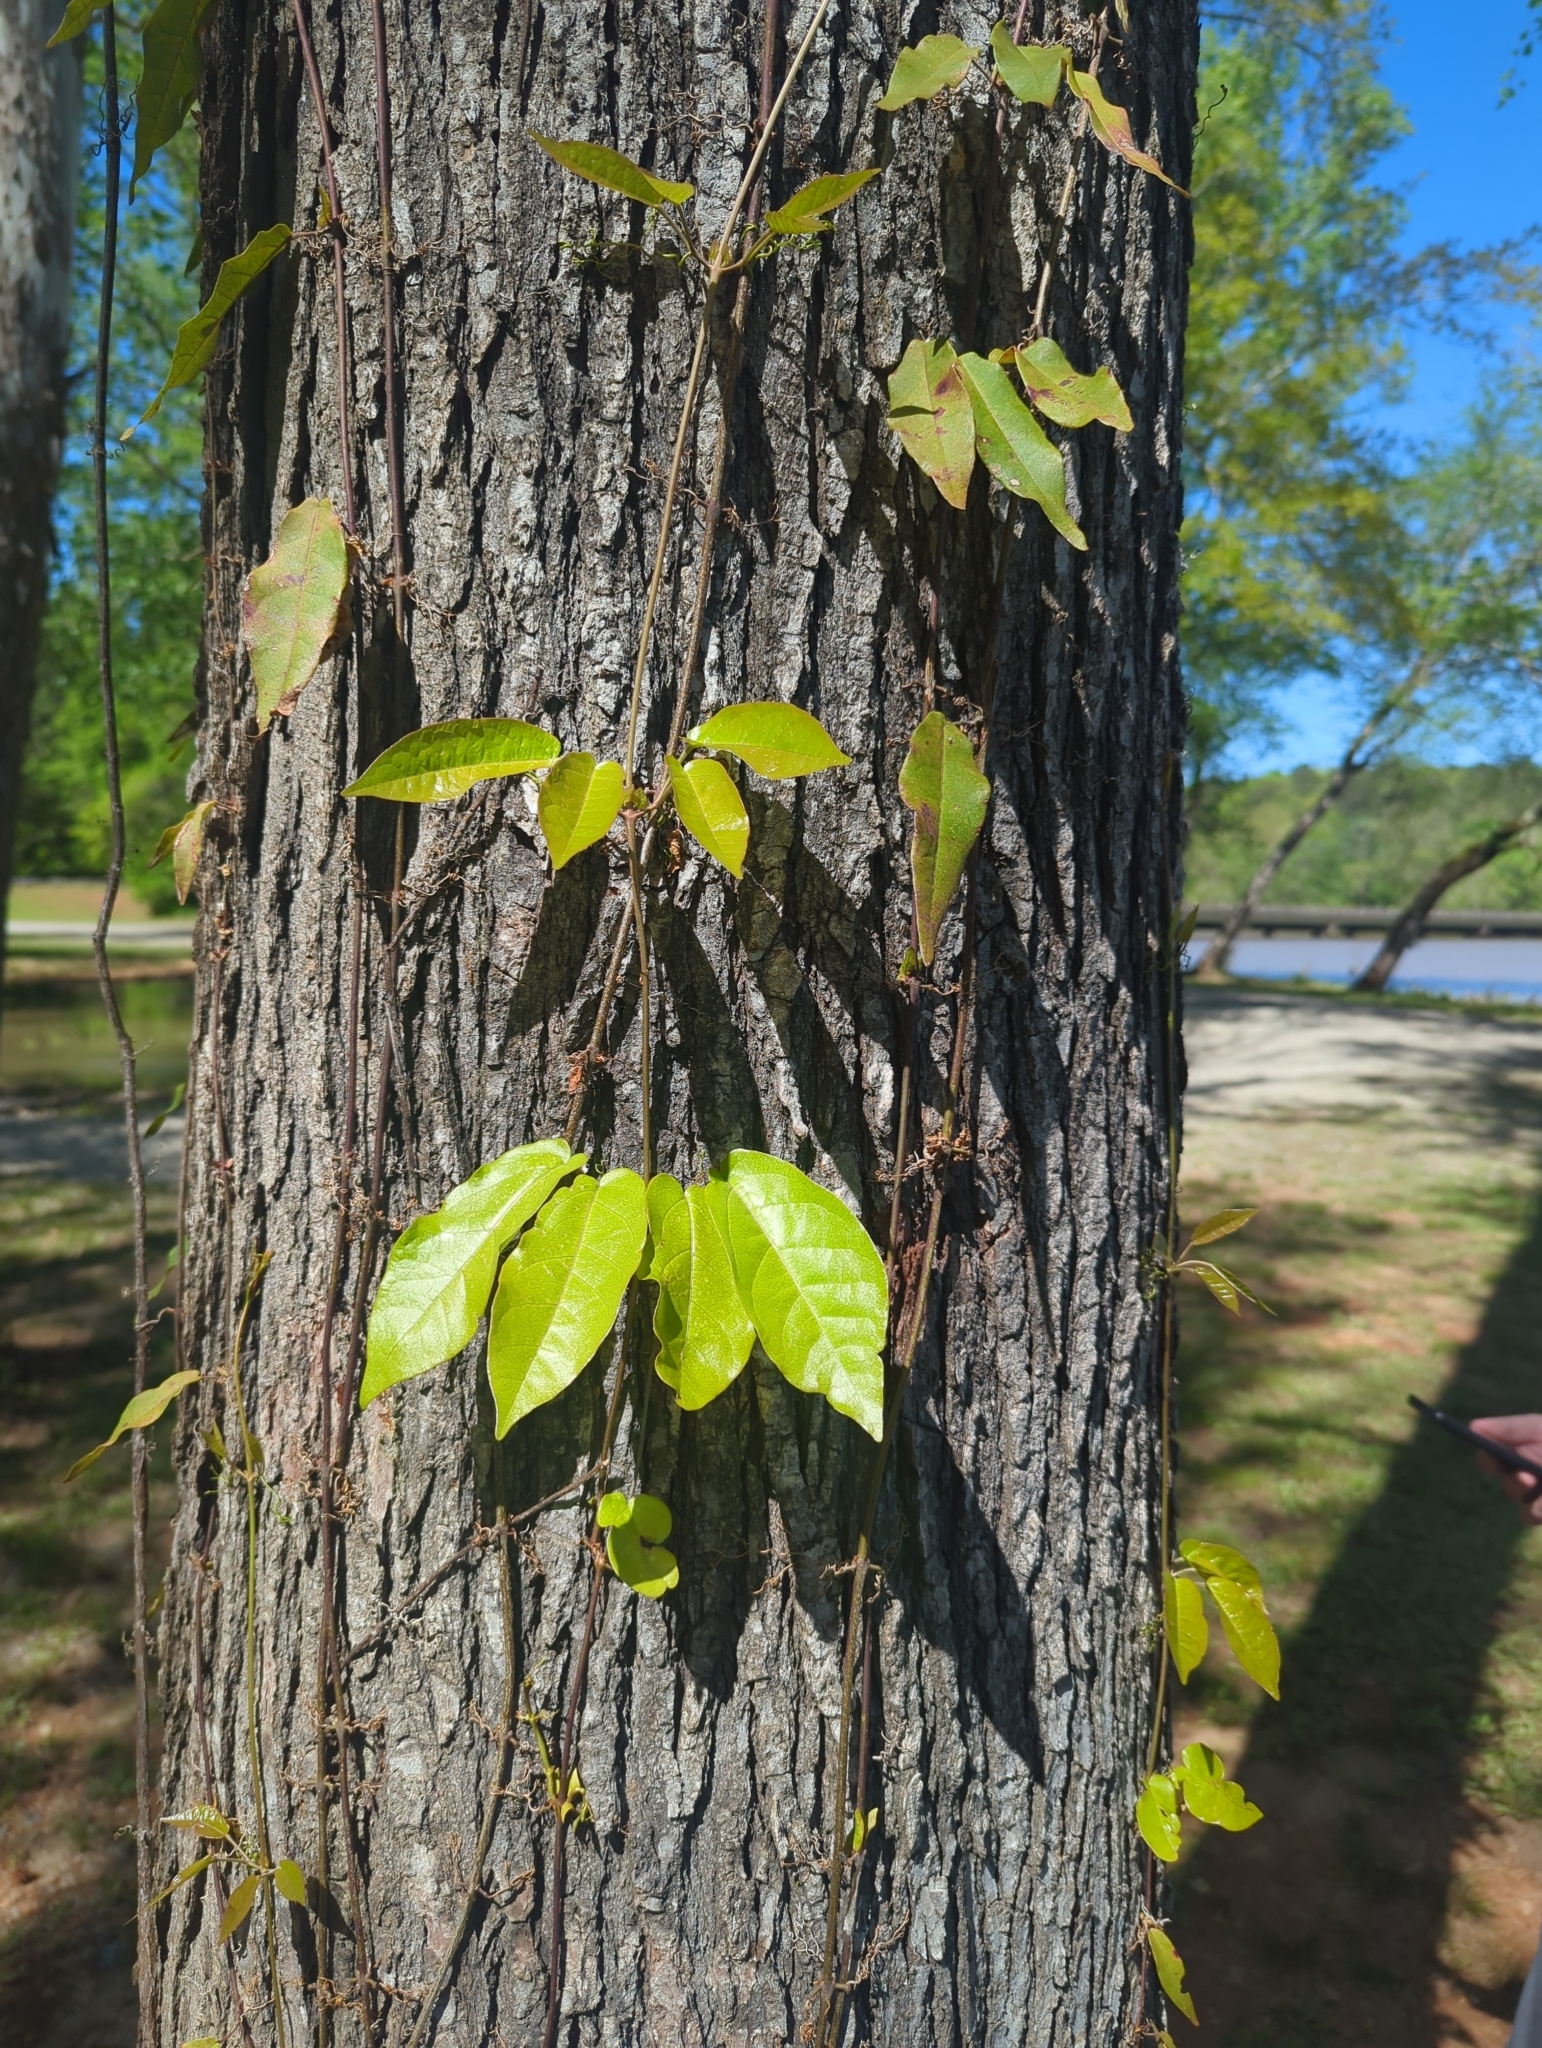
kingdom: Plantae
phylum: Tracheophyta
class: Magnoliopsida
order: Lamiales
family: Bignoniaceae
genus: Bignonia
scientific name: Bignonia capreolata
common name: Crossvine
